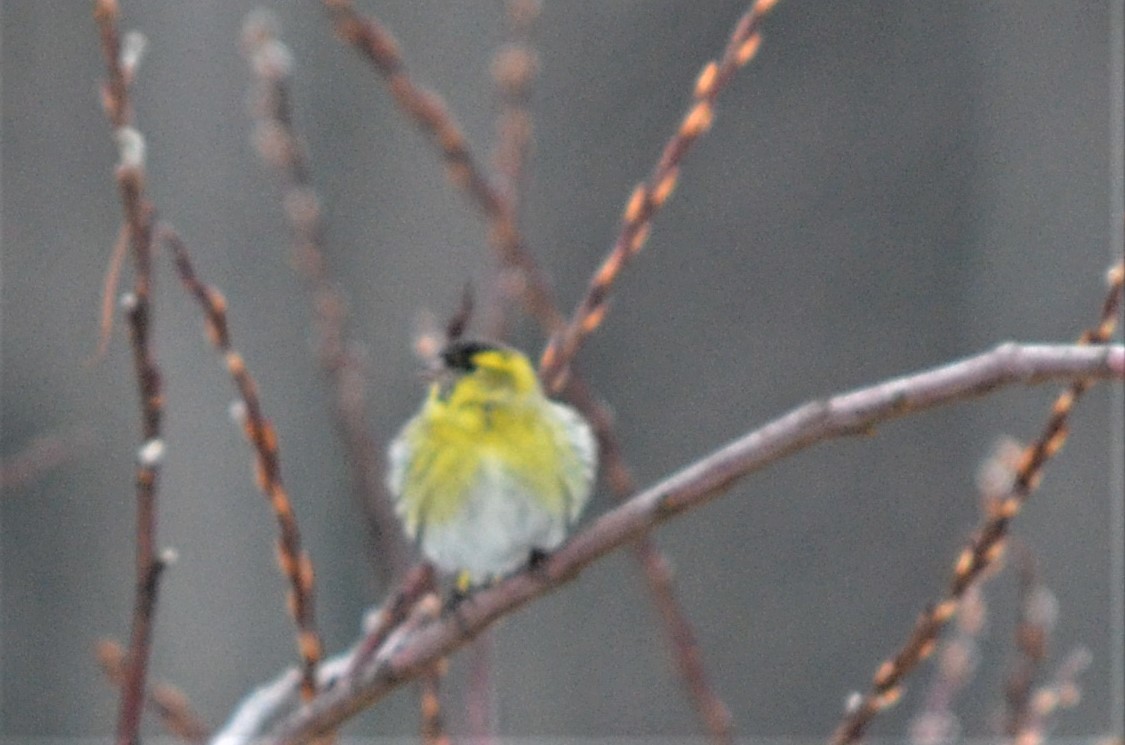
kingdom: Animalia
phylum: Chordata
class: Aves
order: Passeriformes
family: Fringillidae
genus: Spinus
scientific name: Spinus spinus
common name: Eurasian siskin
